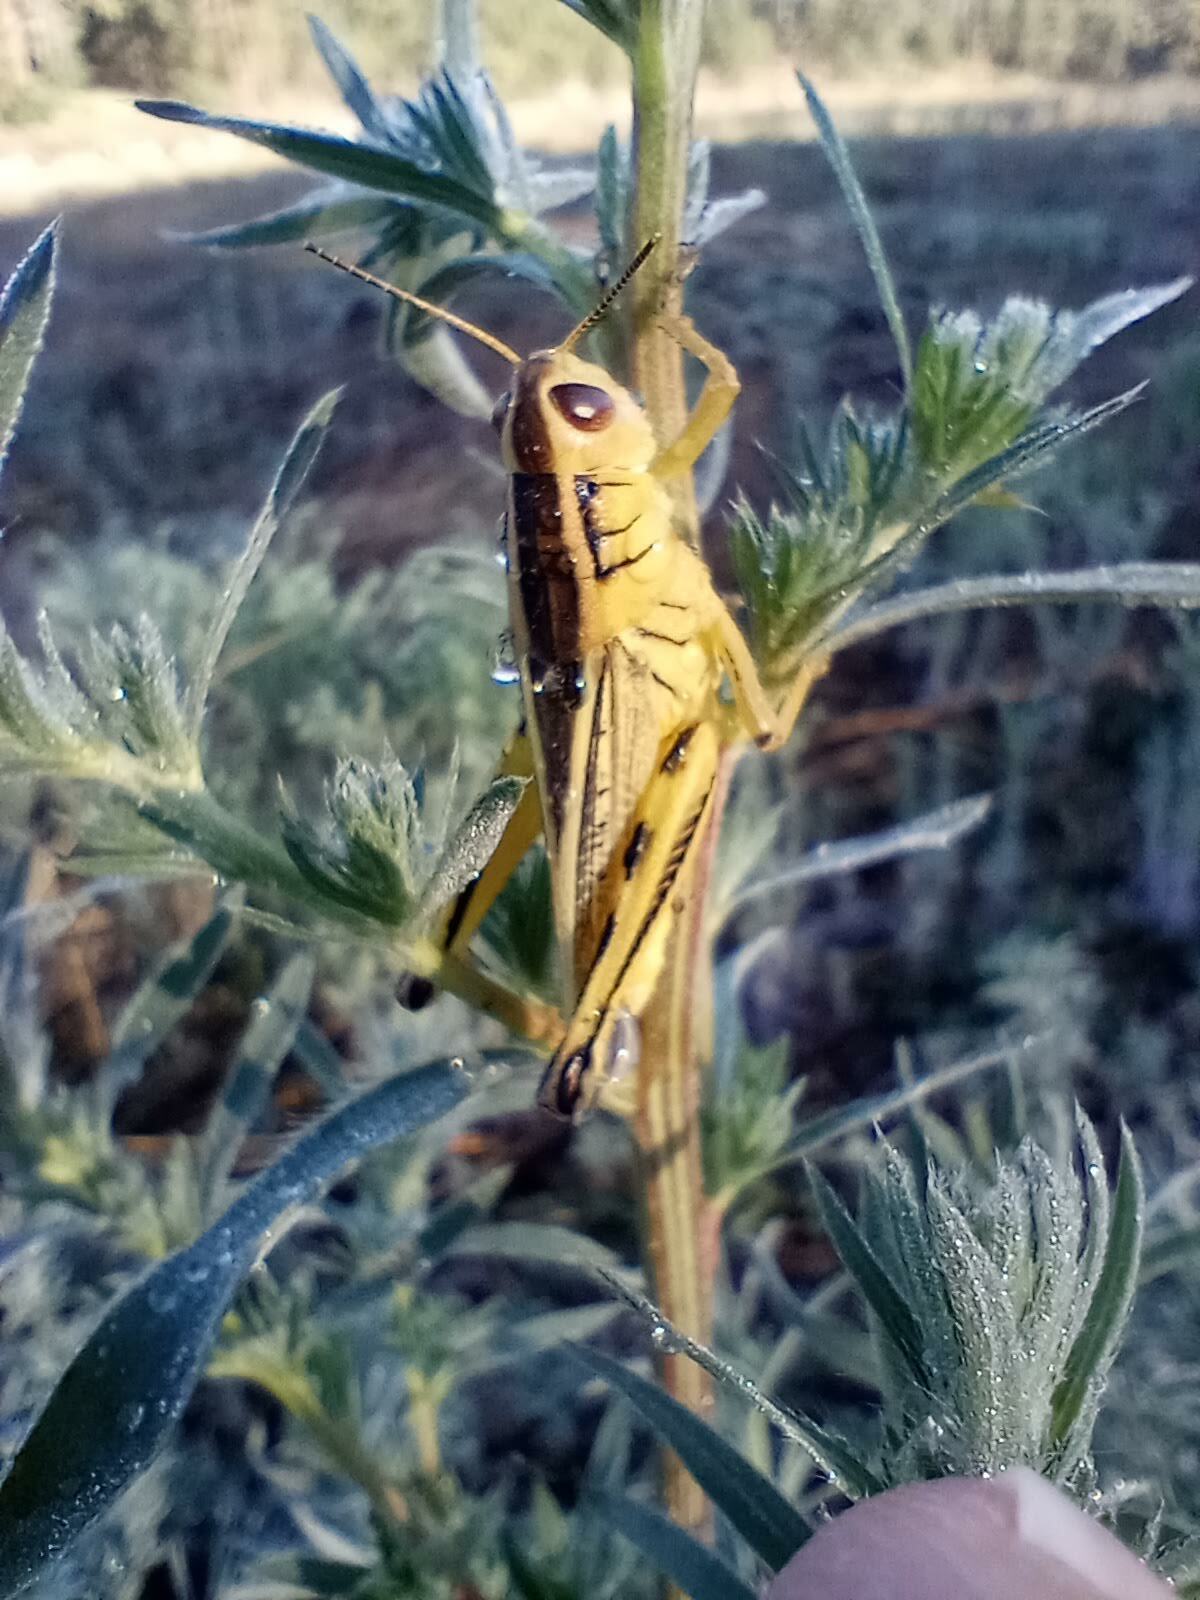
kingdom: Animalia
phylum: Arthropoda
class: Insecta
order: Orthoptera
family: Acrididae
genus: Melanoplus
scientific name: Melanoplus bivittatus
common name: Two-striped grasshopper
